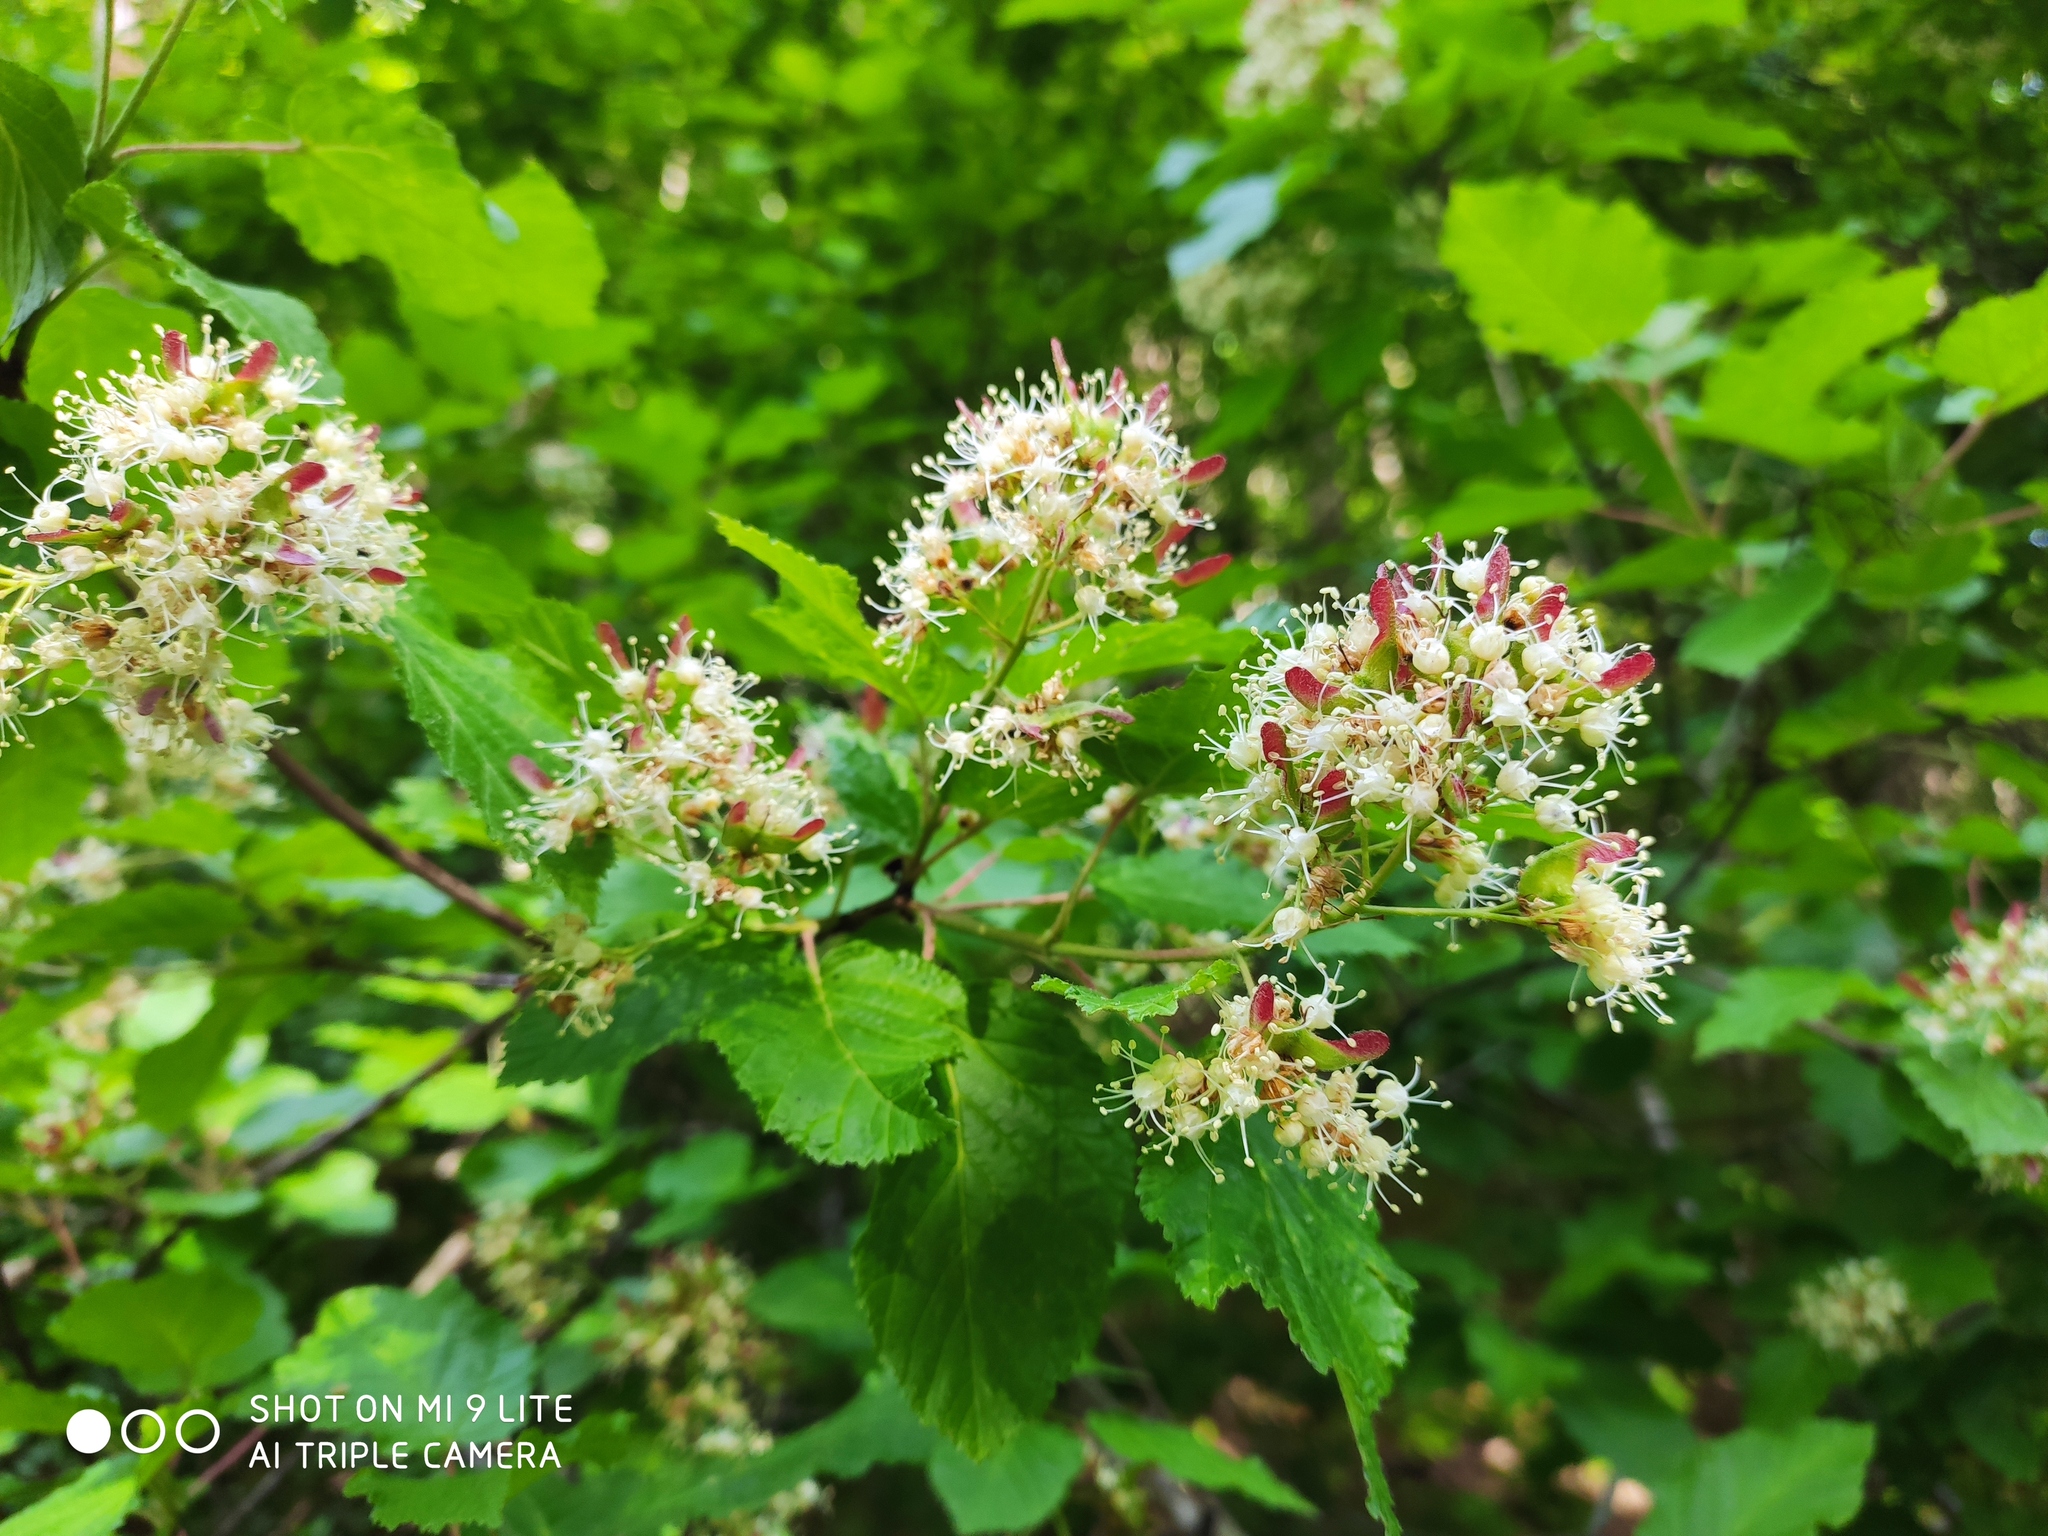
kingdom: Plantae
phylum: Tracheophyta
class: Magnoliopsida
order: Sapindales
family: Sapindaceae
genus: Acer
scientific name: Acer tataricum
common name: Tartar maple
